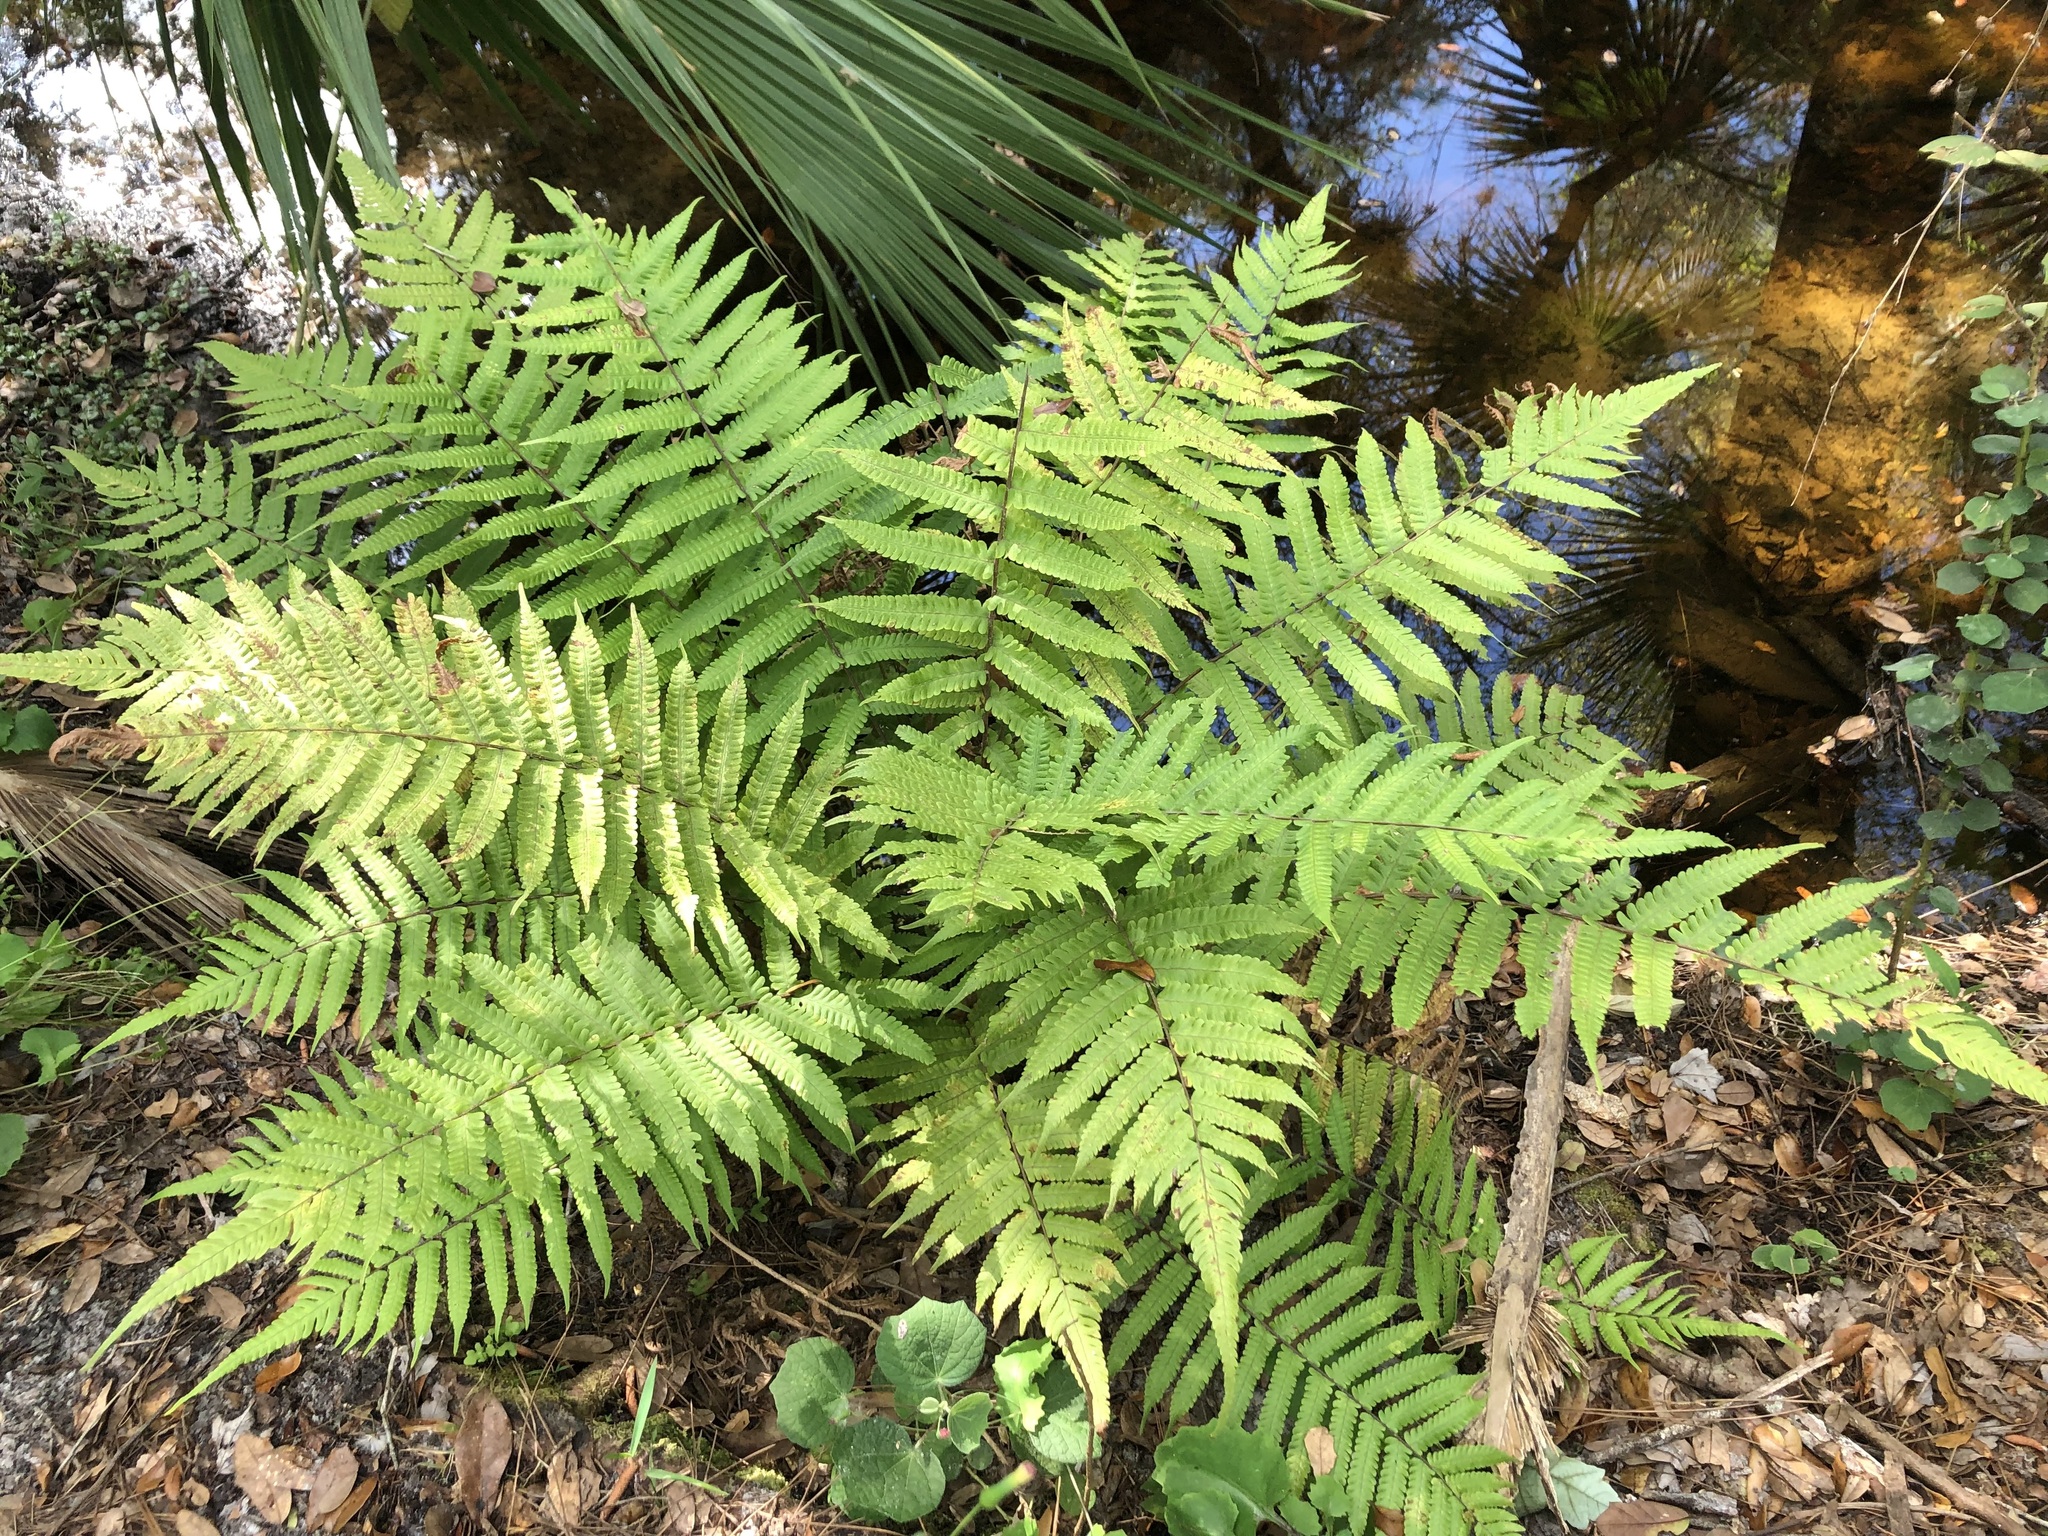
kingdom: Plantae
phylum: Tracheophyta
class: Polypodiopsida
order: Polypodiales
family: Thelypteridaceae
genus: Christella
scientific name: Christella dentata
